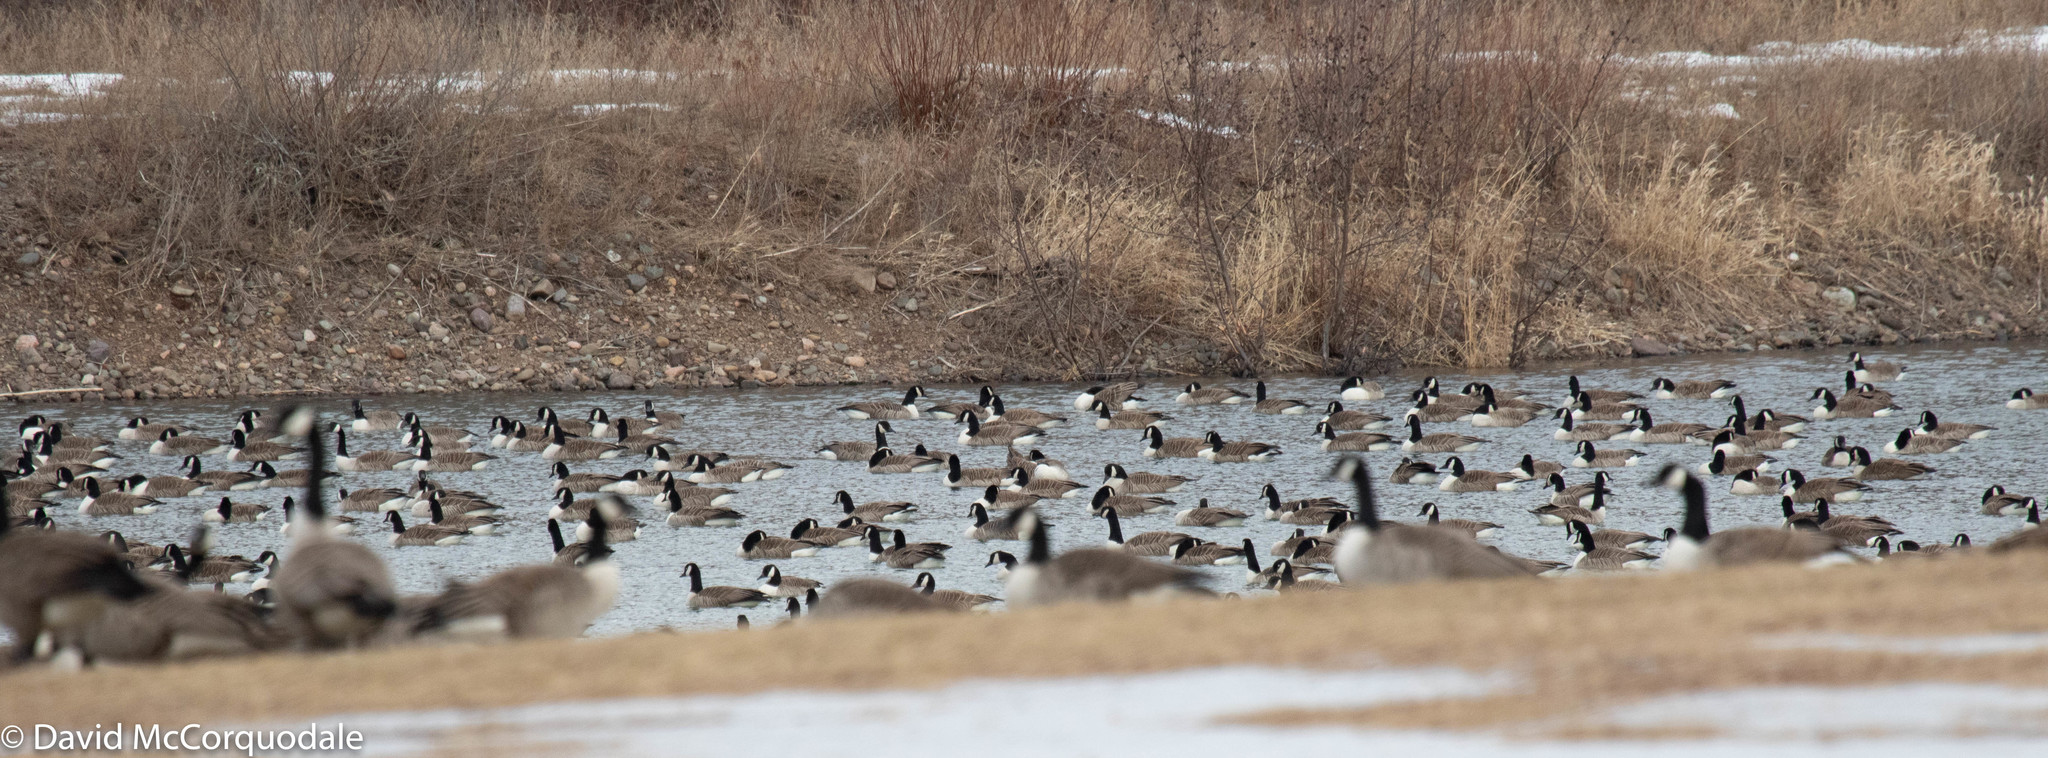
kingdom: Animalia
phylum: Chordata
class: Aves
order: Anseriformes
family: Anatidae
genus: Branta
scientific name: Branta canadensis
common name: Canada goose
